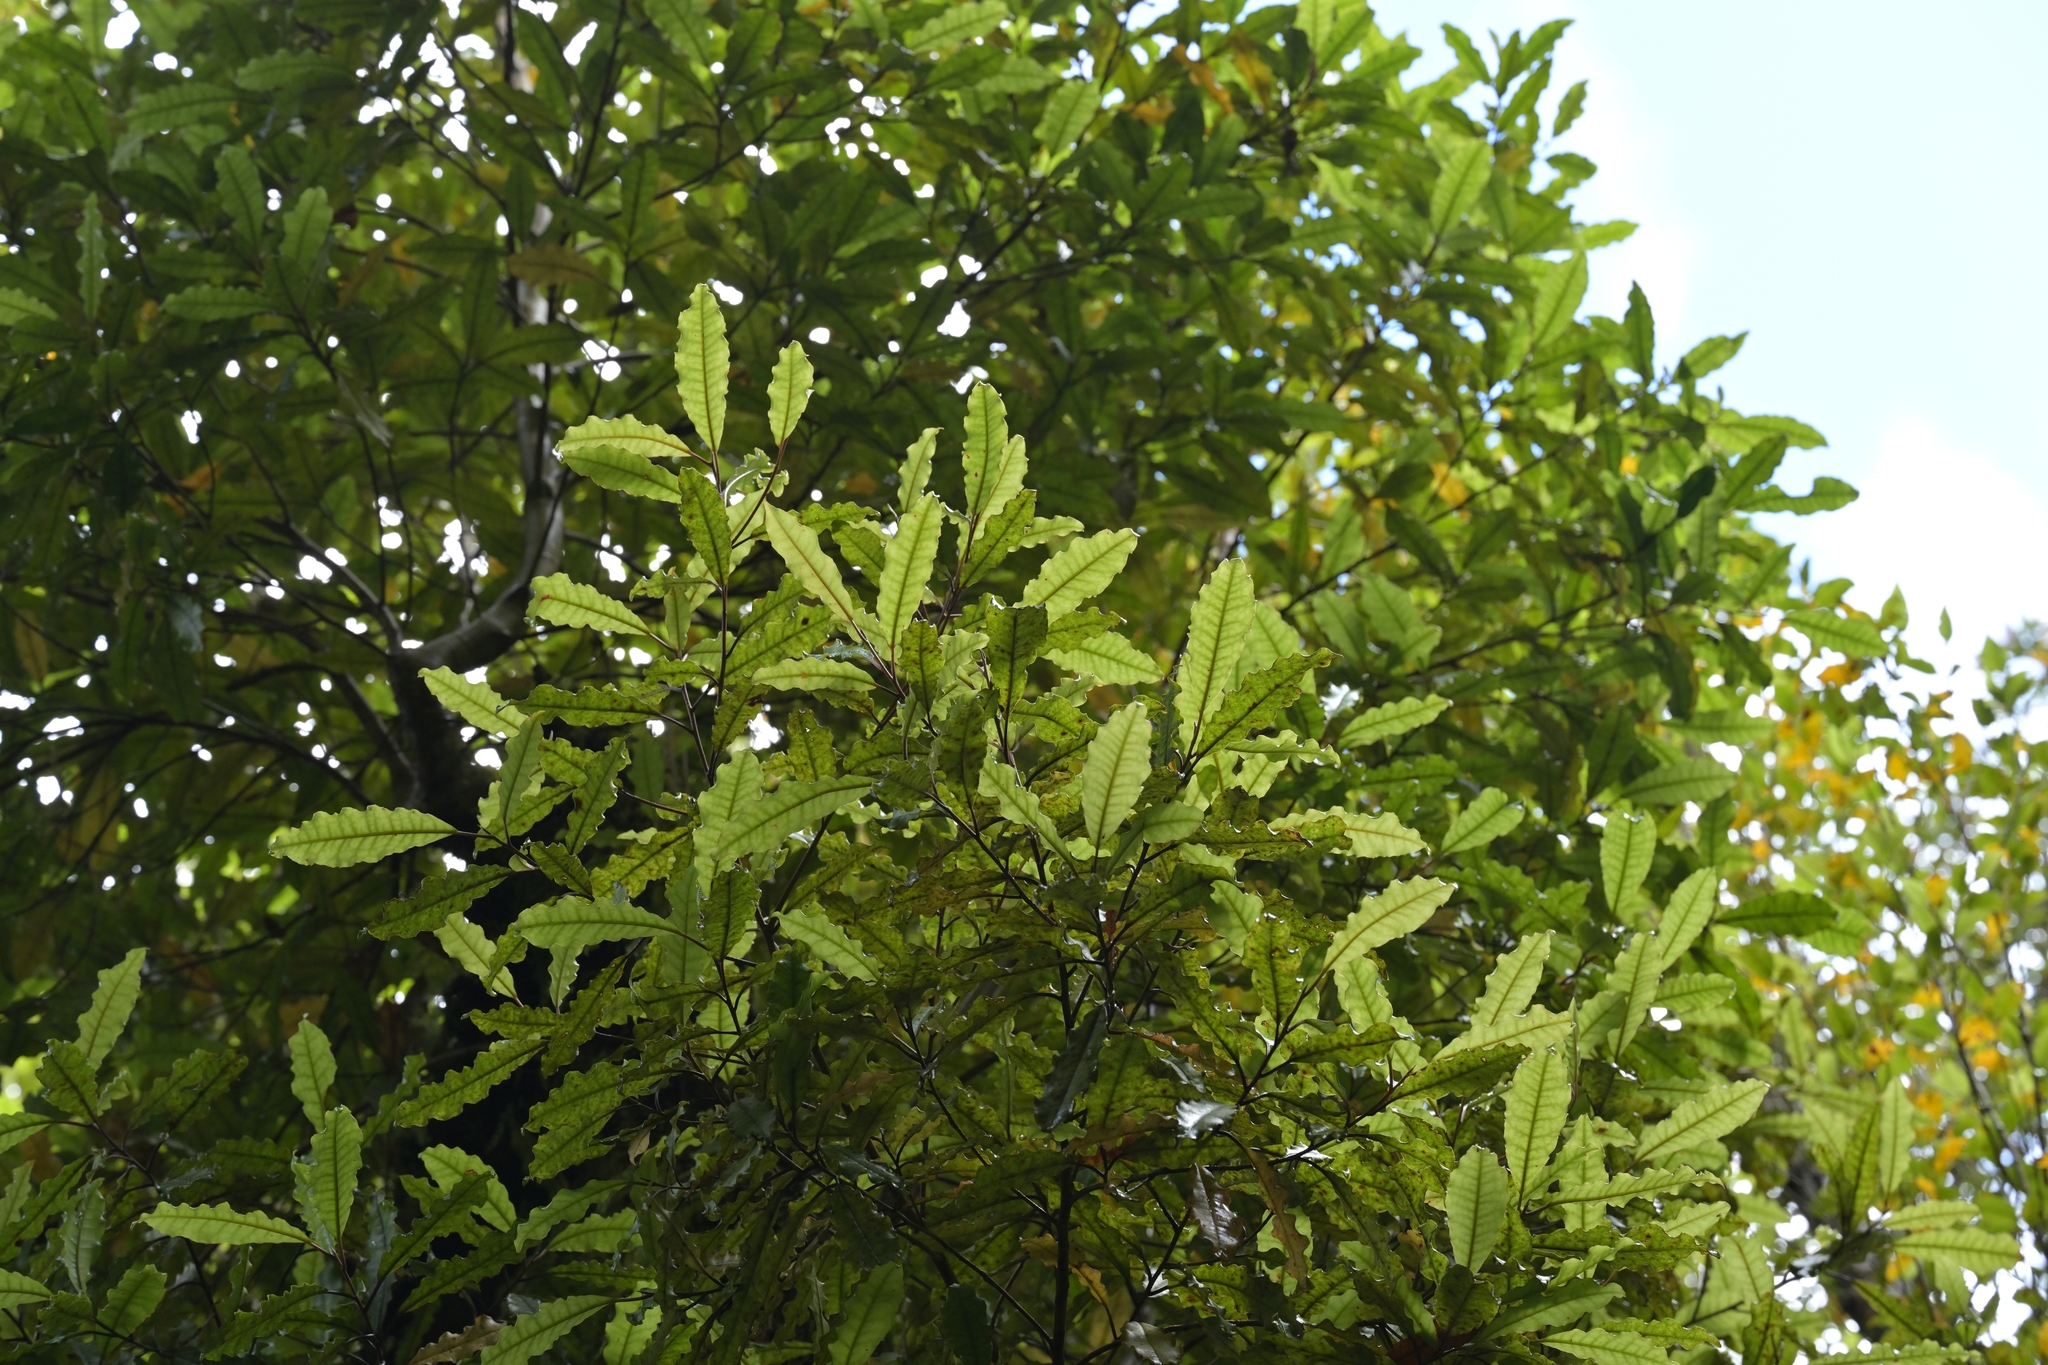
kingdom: Plantae
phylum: Tracheophyta
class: Magnoliopsida
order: Paracryphiales
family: Paracryphiaceae
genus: Quintinia
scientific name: Quintinia serrata
